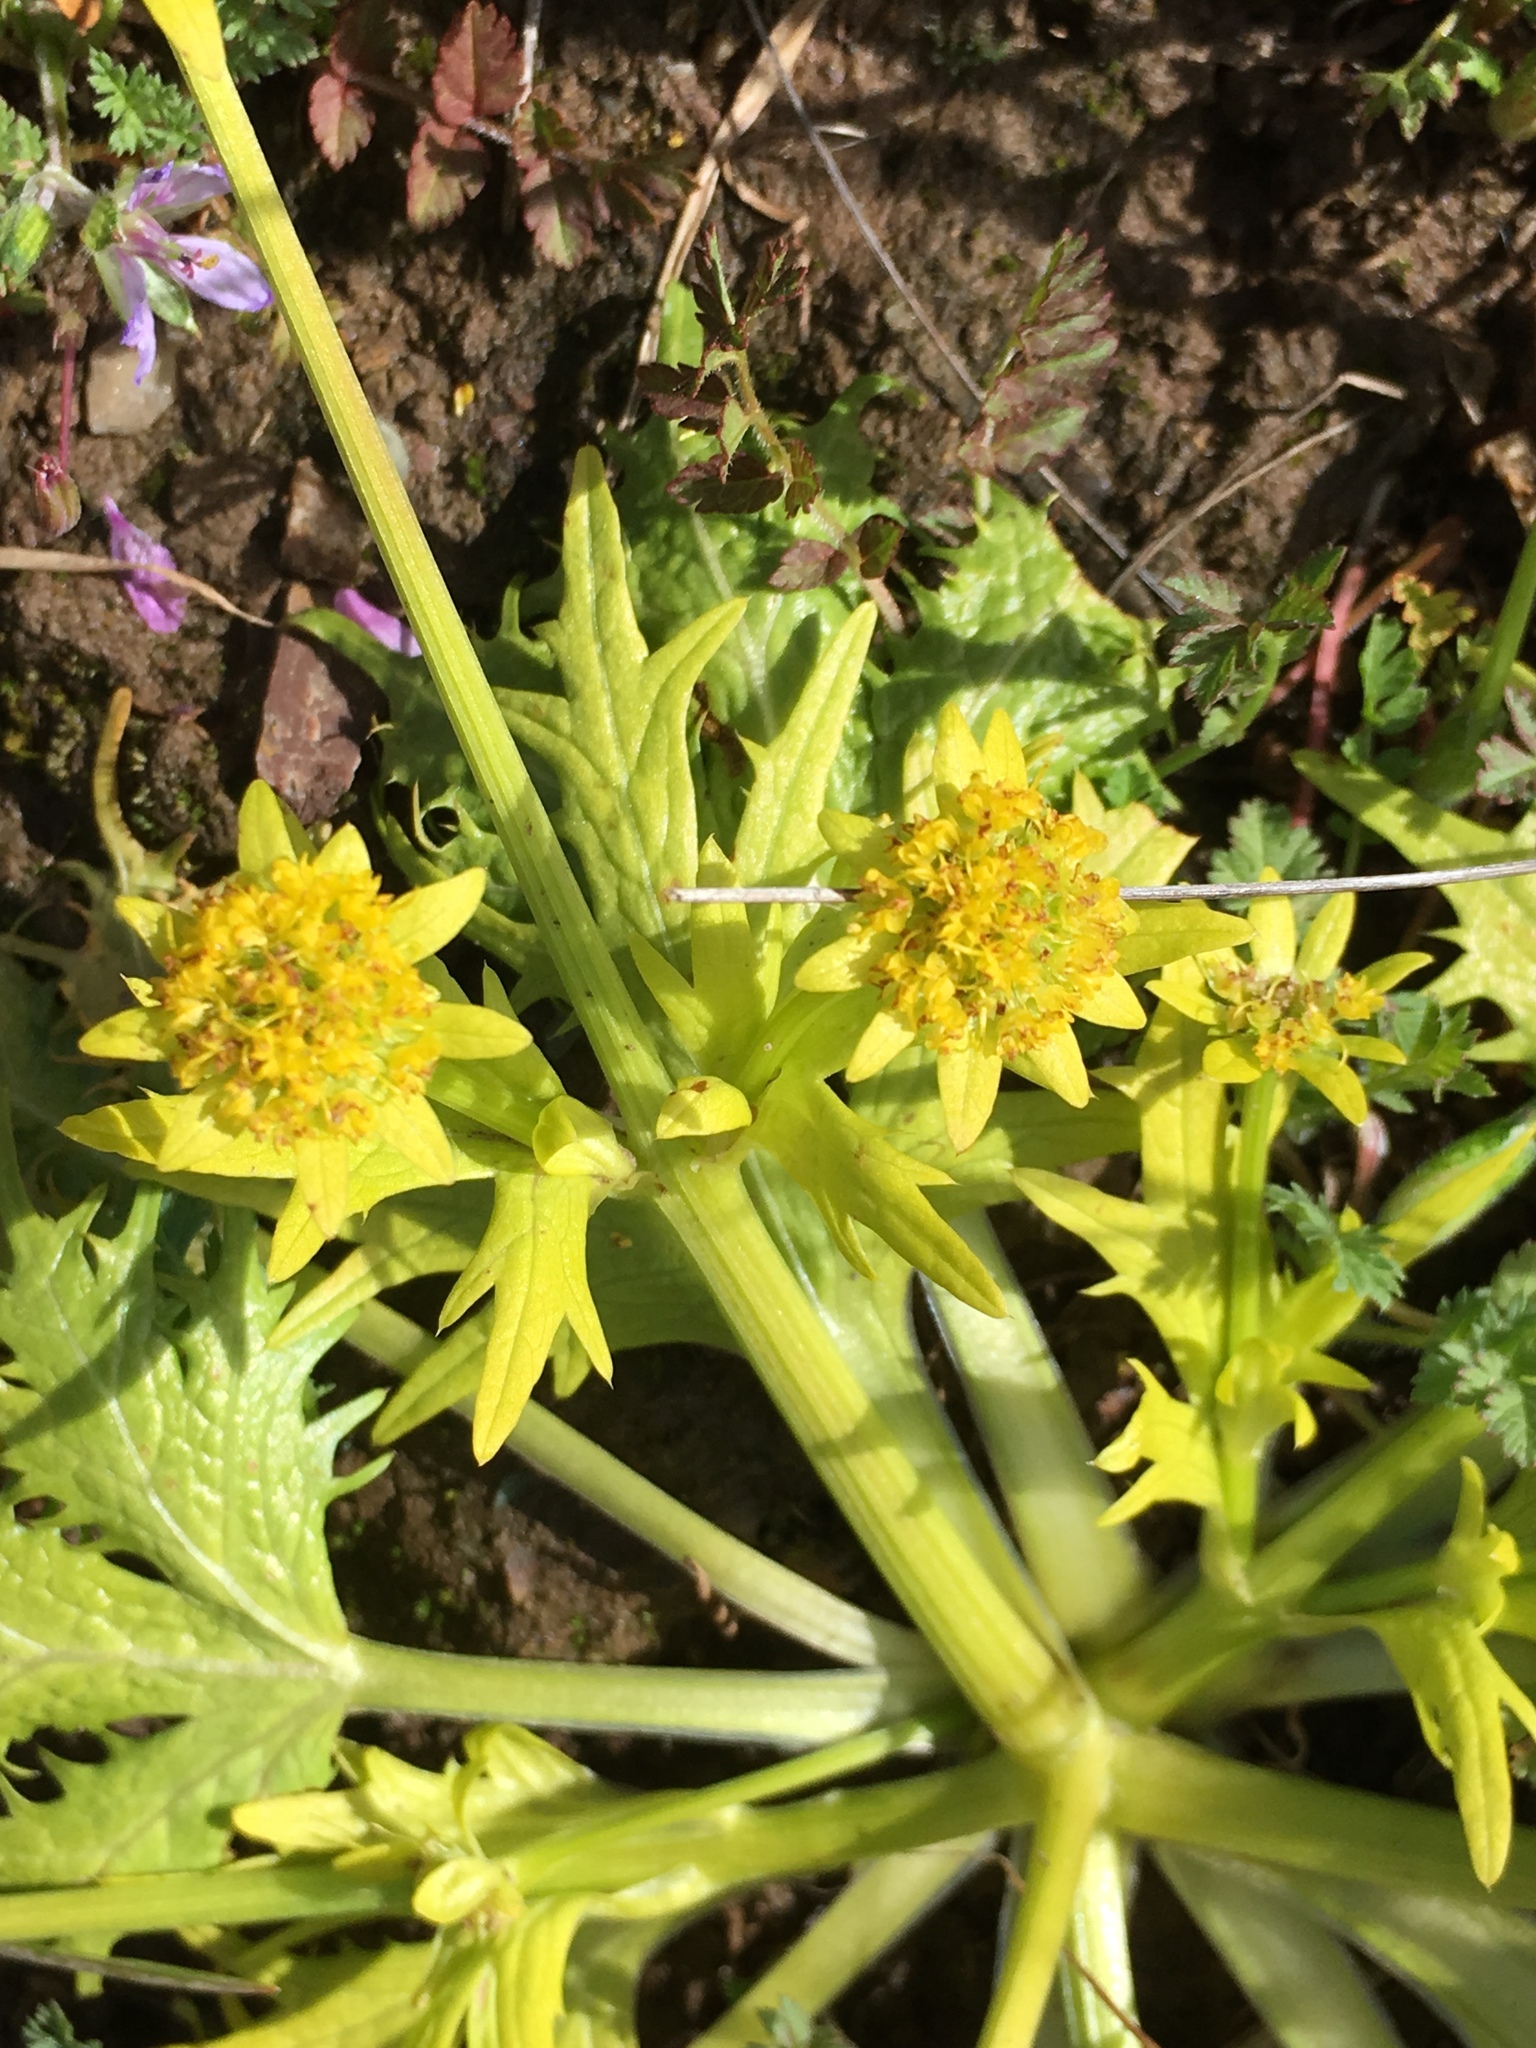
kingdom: Plantae
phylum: Tracheophyta
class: Magnoliopsida
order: Apiales
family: Apiaceae
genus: Sanicula
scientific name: Sanicula arctopoides
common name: Footsteps-of-spring
